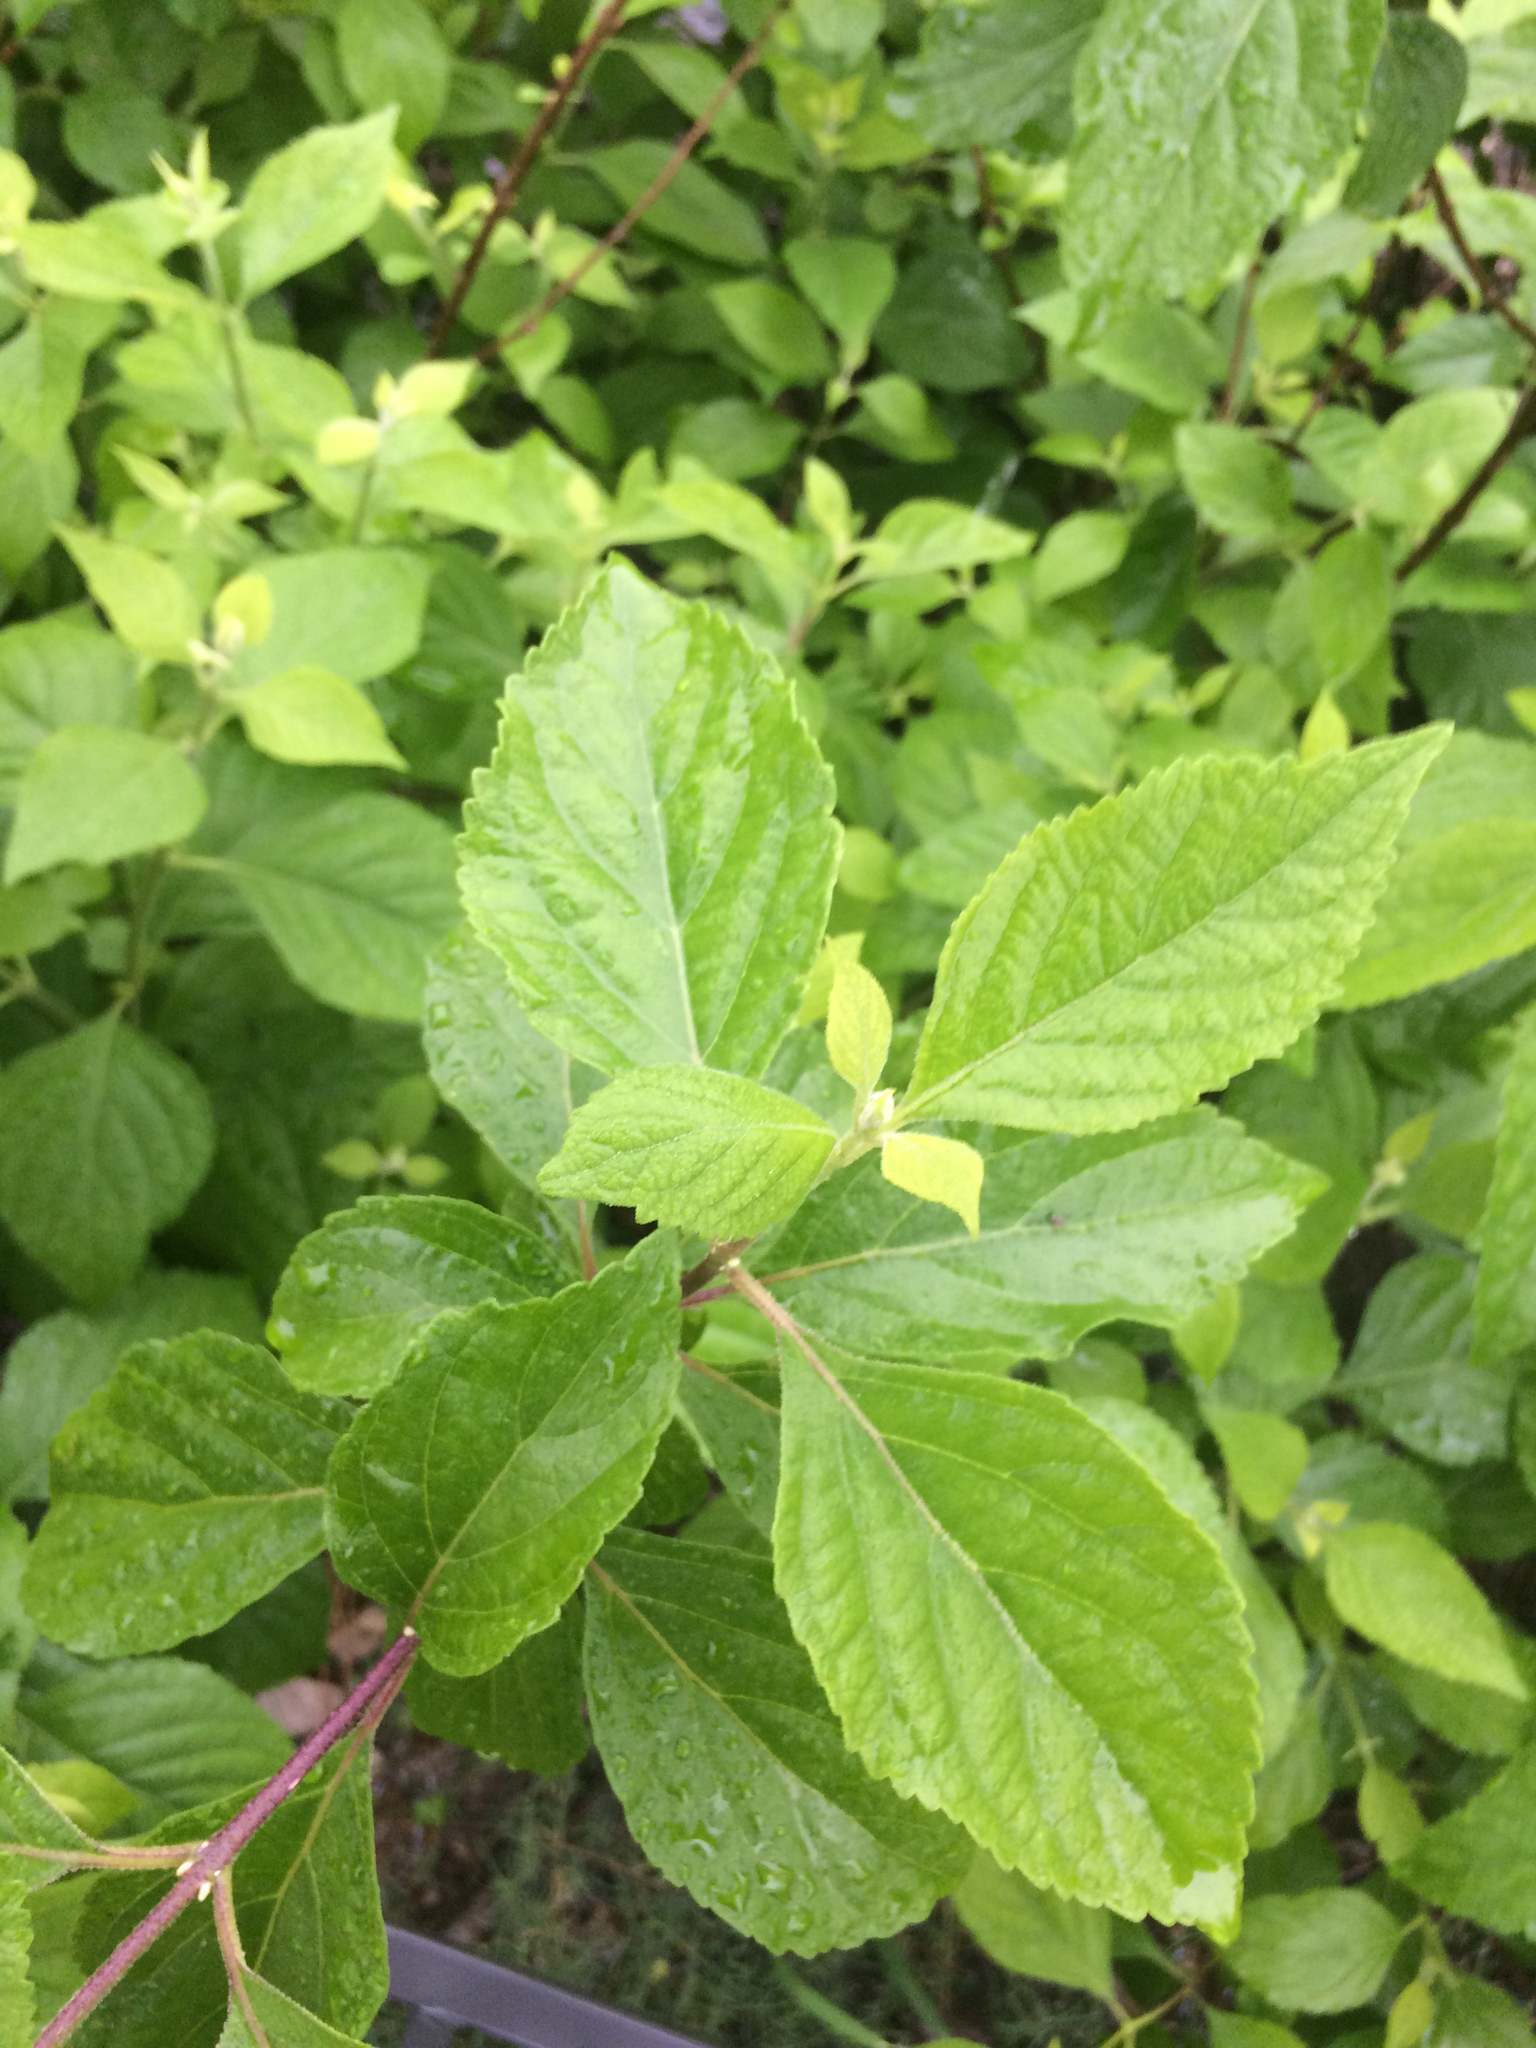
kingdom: Plantae
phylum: Tracheophyta
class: Magnoliopsida
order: Lamiales
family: Lamiaceae
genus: Callicarpa
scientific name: Callicarpa americana
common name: American beautyberry
